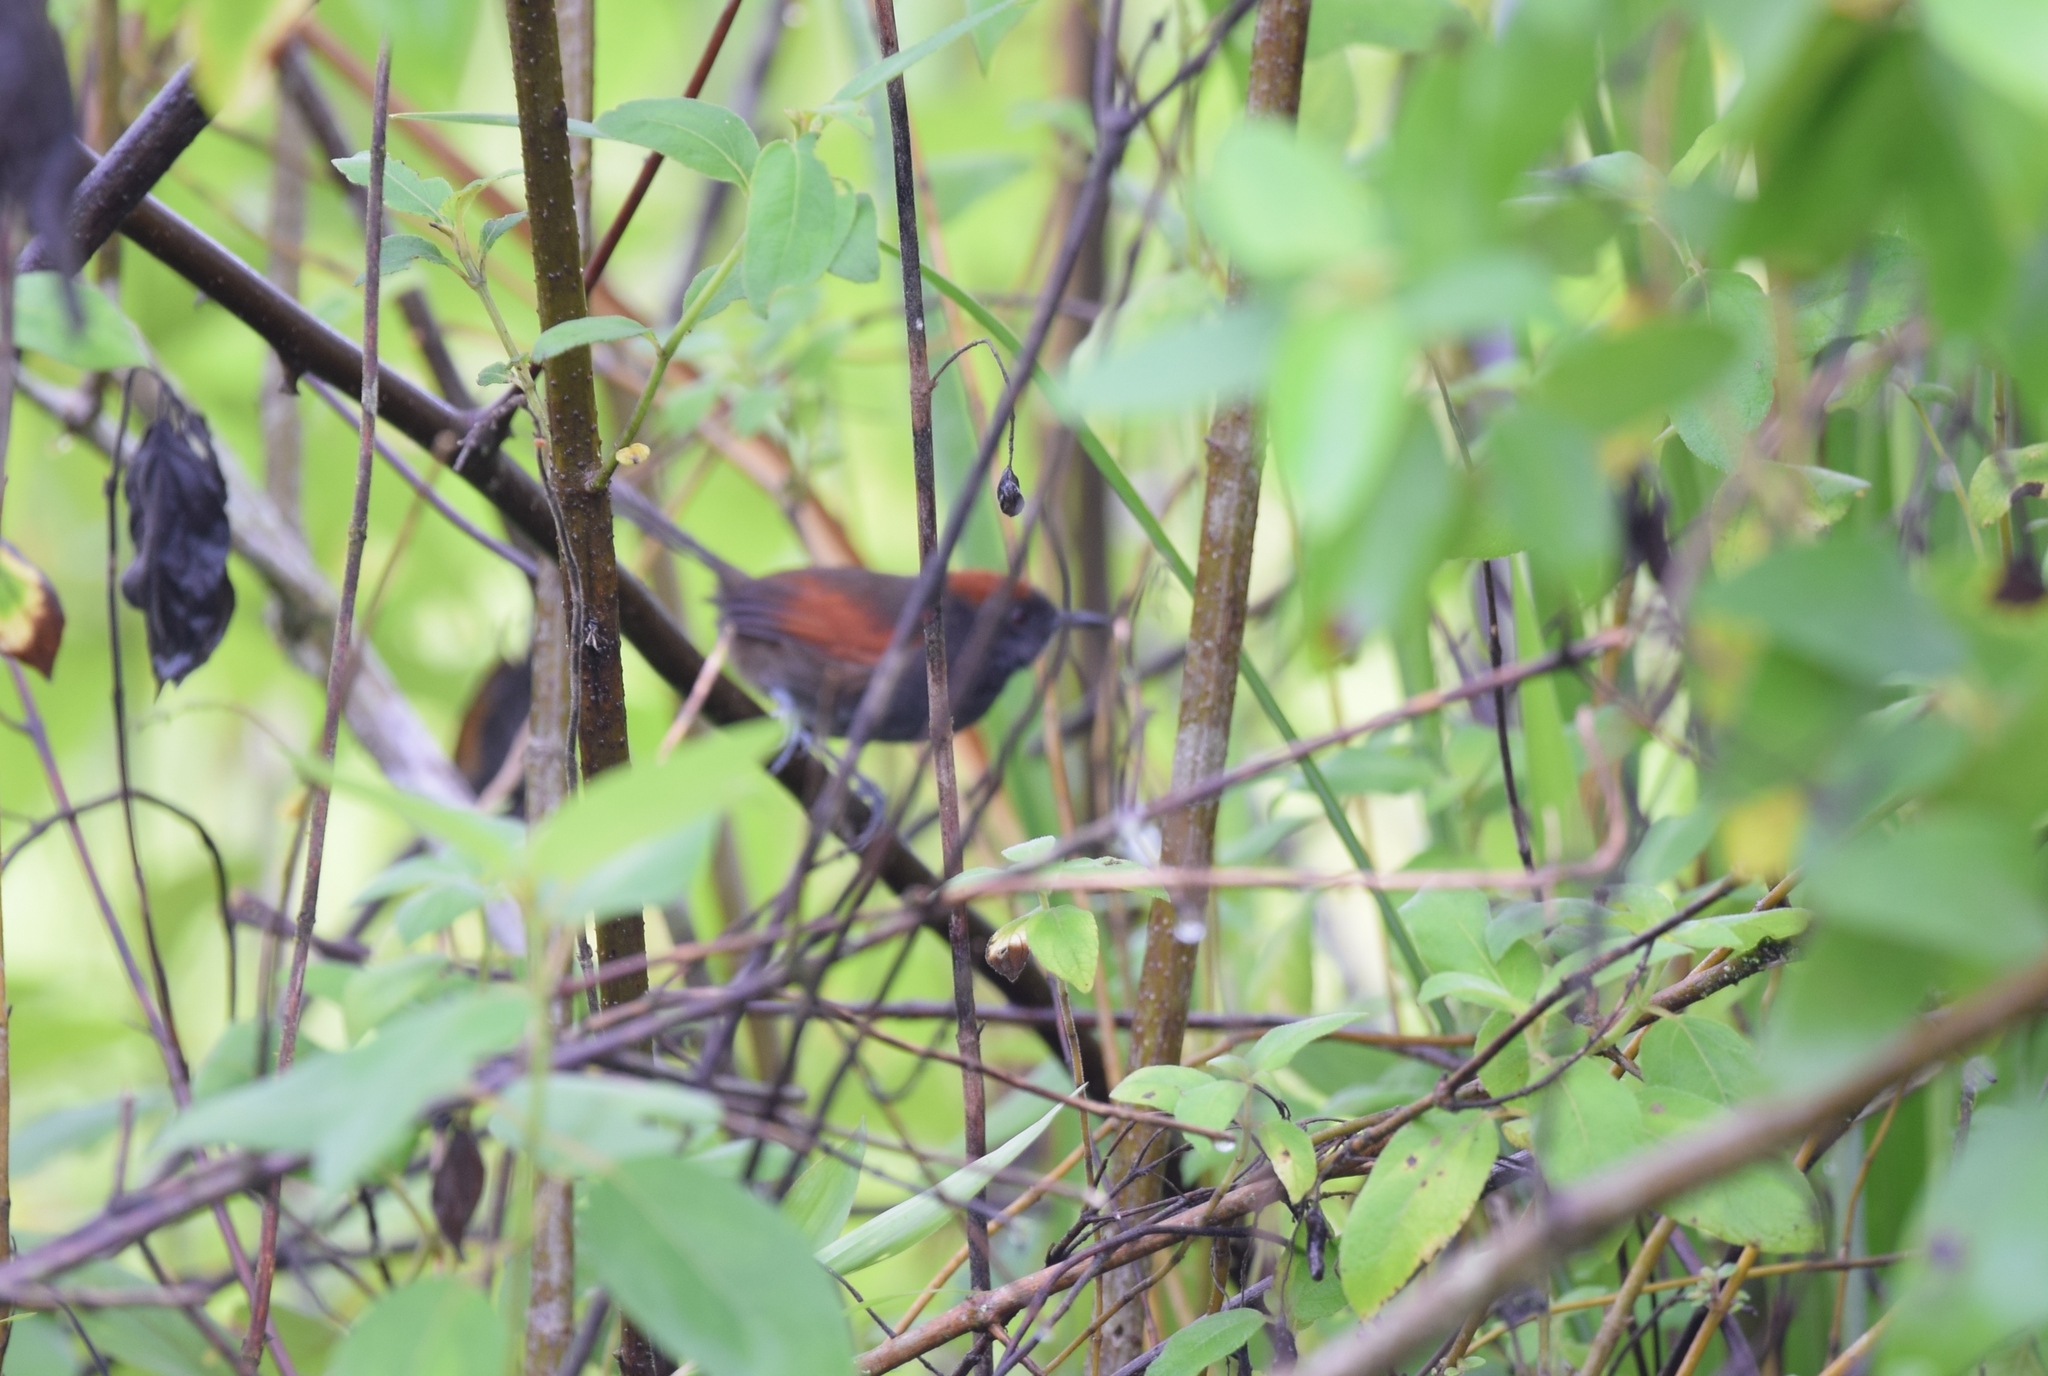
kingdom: Animalia
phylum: Chordata
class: Aves
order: Passeriformes
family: Furnariidae
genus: Synallaxis
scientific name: Synallaxis brachyura
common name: Slaty spinetail
